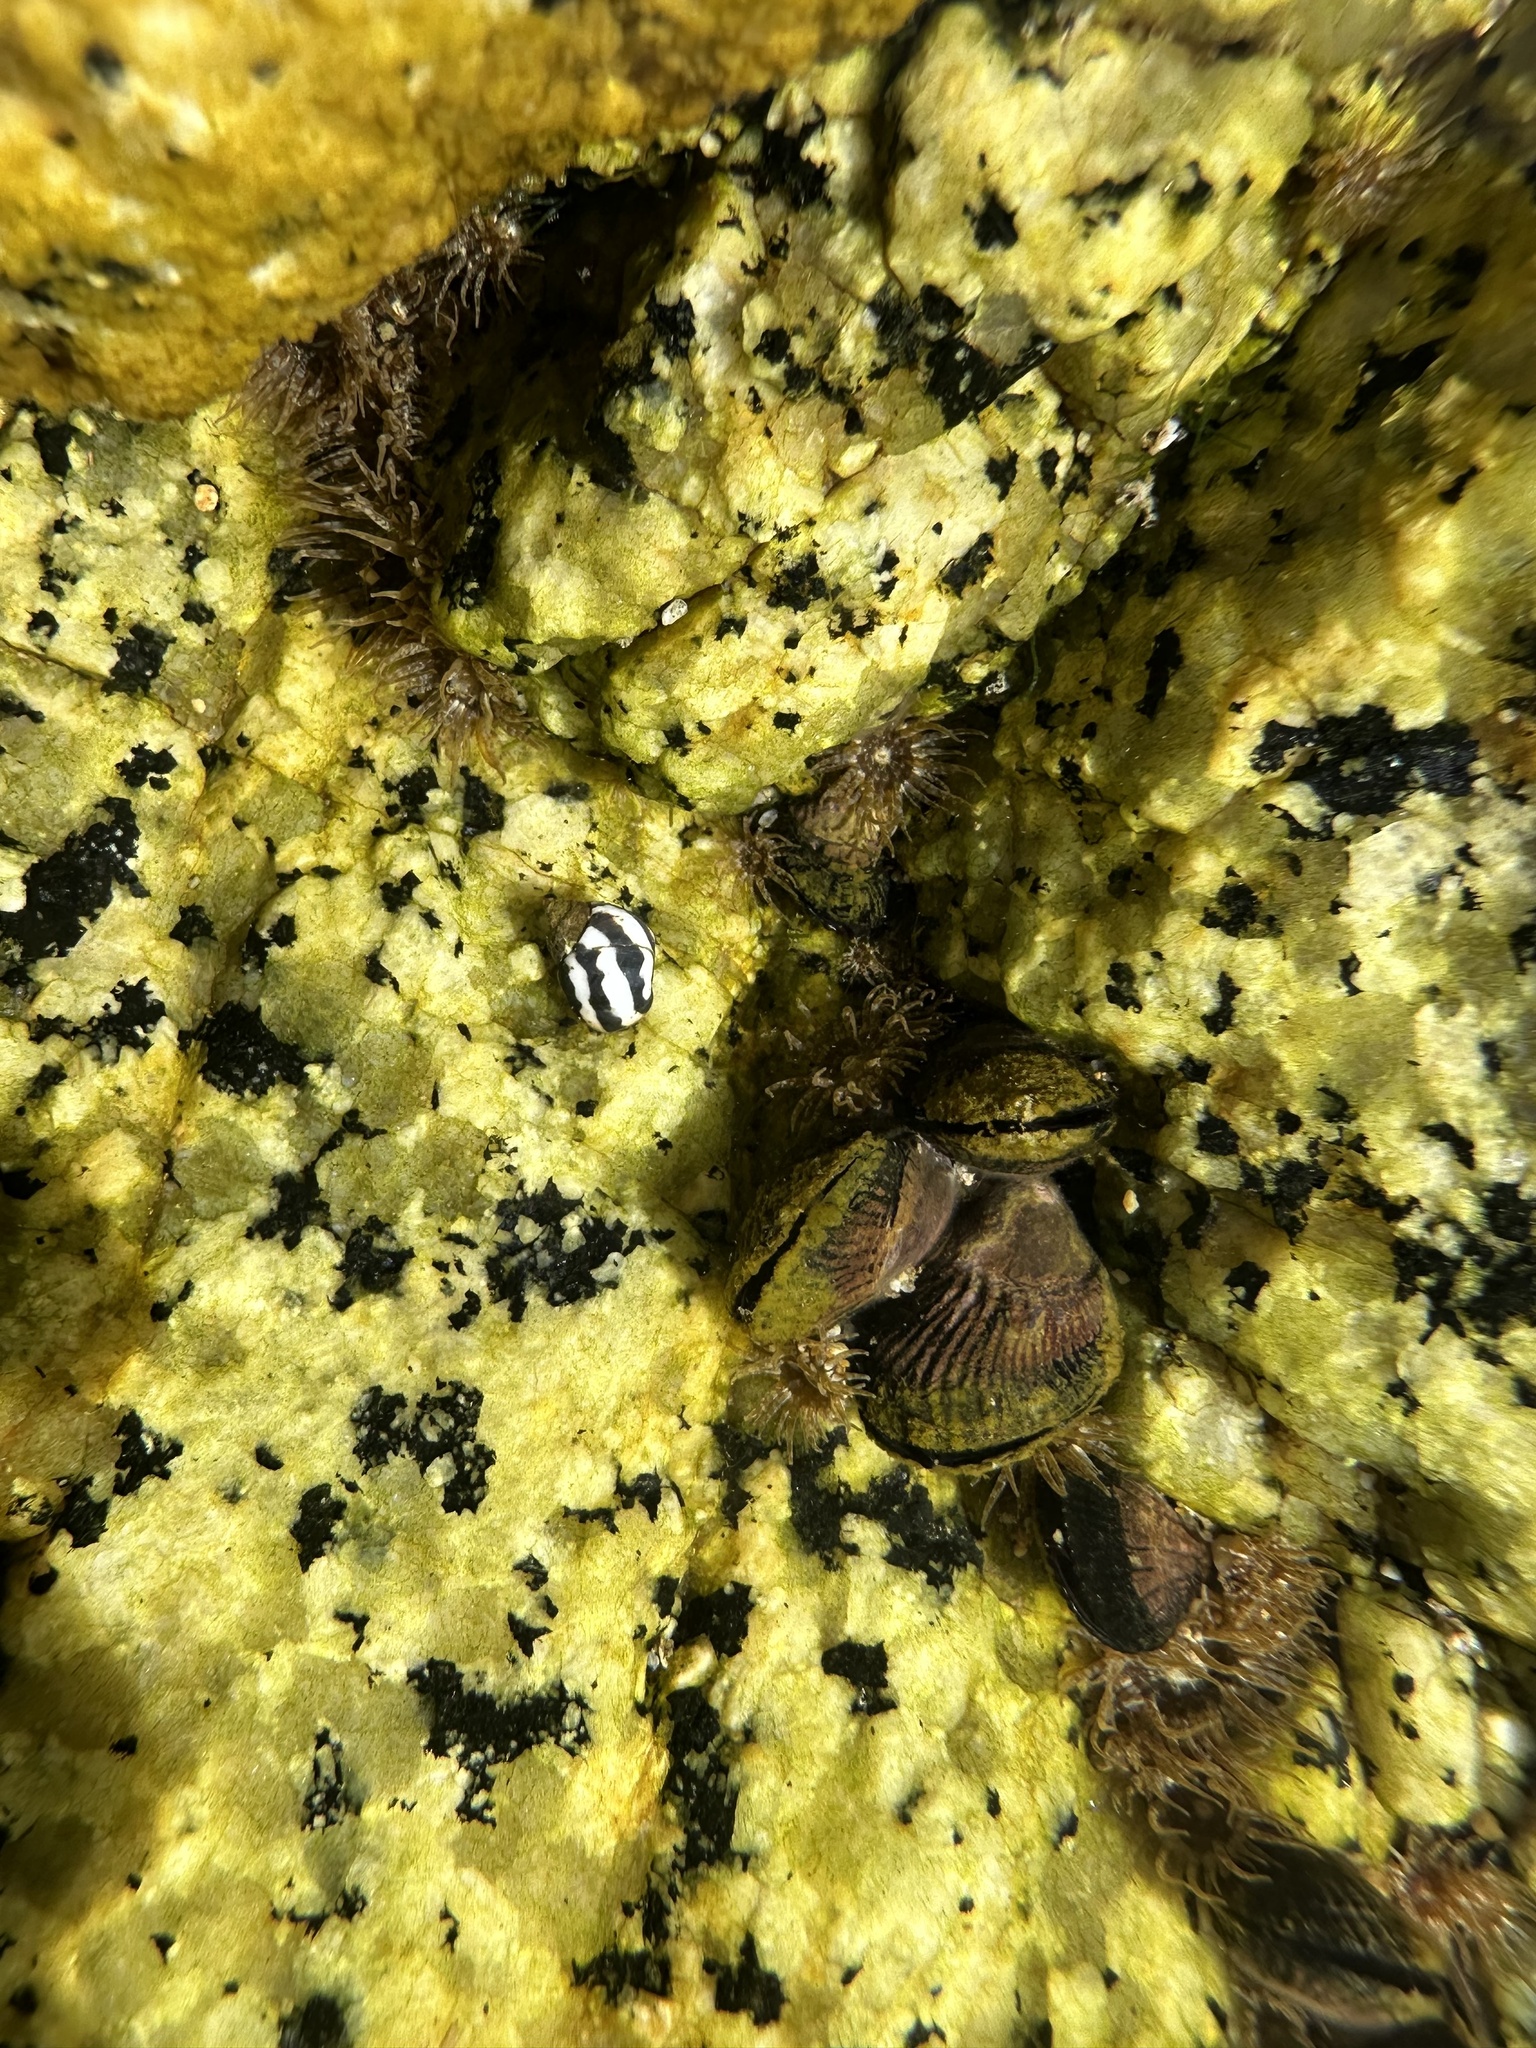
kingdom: Animalia
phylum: Mollusca
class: Gastropoda
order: Littorinimorpha
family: Littorinidae
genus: Echinolittorina
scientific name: Echinolittorina peruviana
